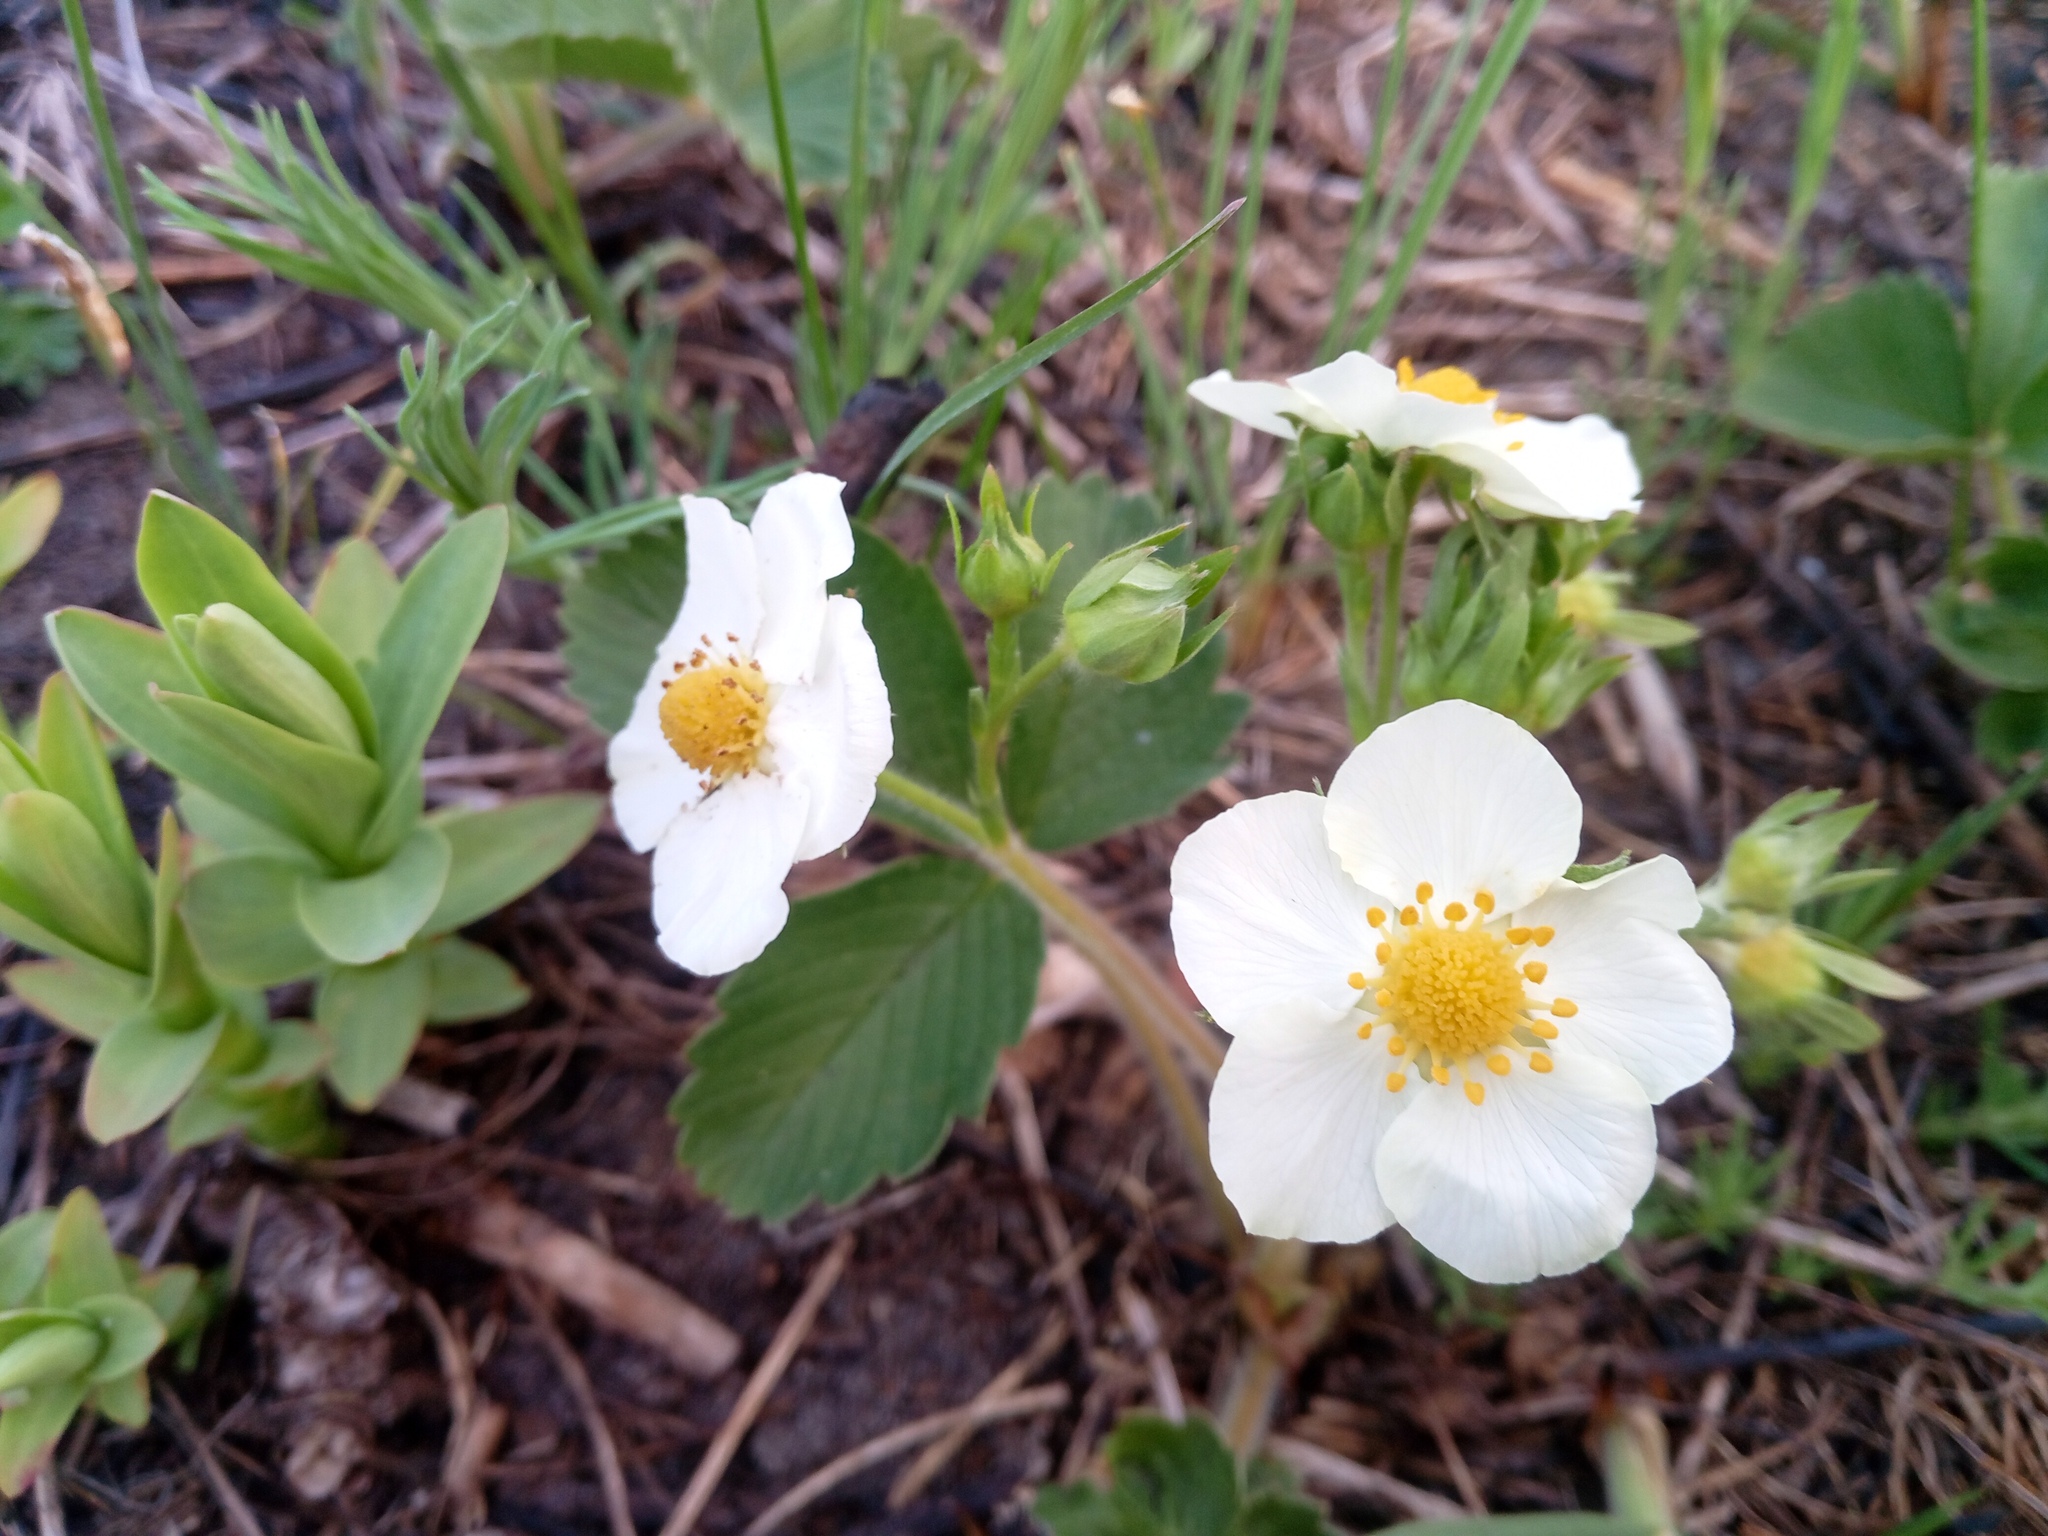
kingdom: Plantae
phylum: Tracheophyta
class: Magnoliopsida
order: Rosales
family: Rosaceae
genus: Fragaria
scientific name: Fragaria viridis
